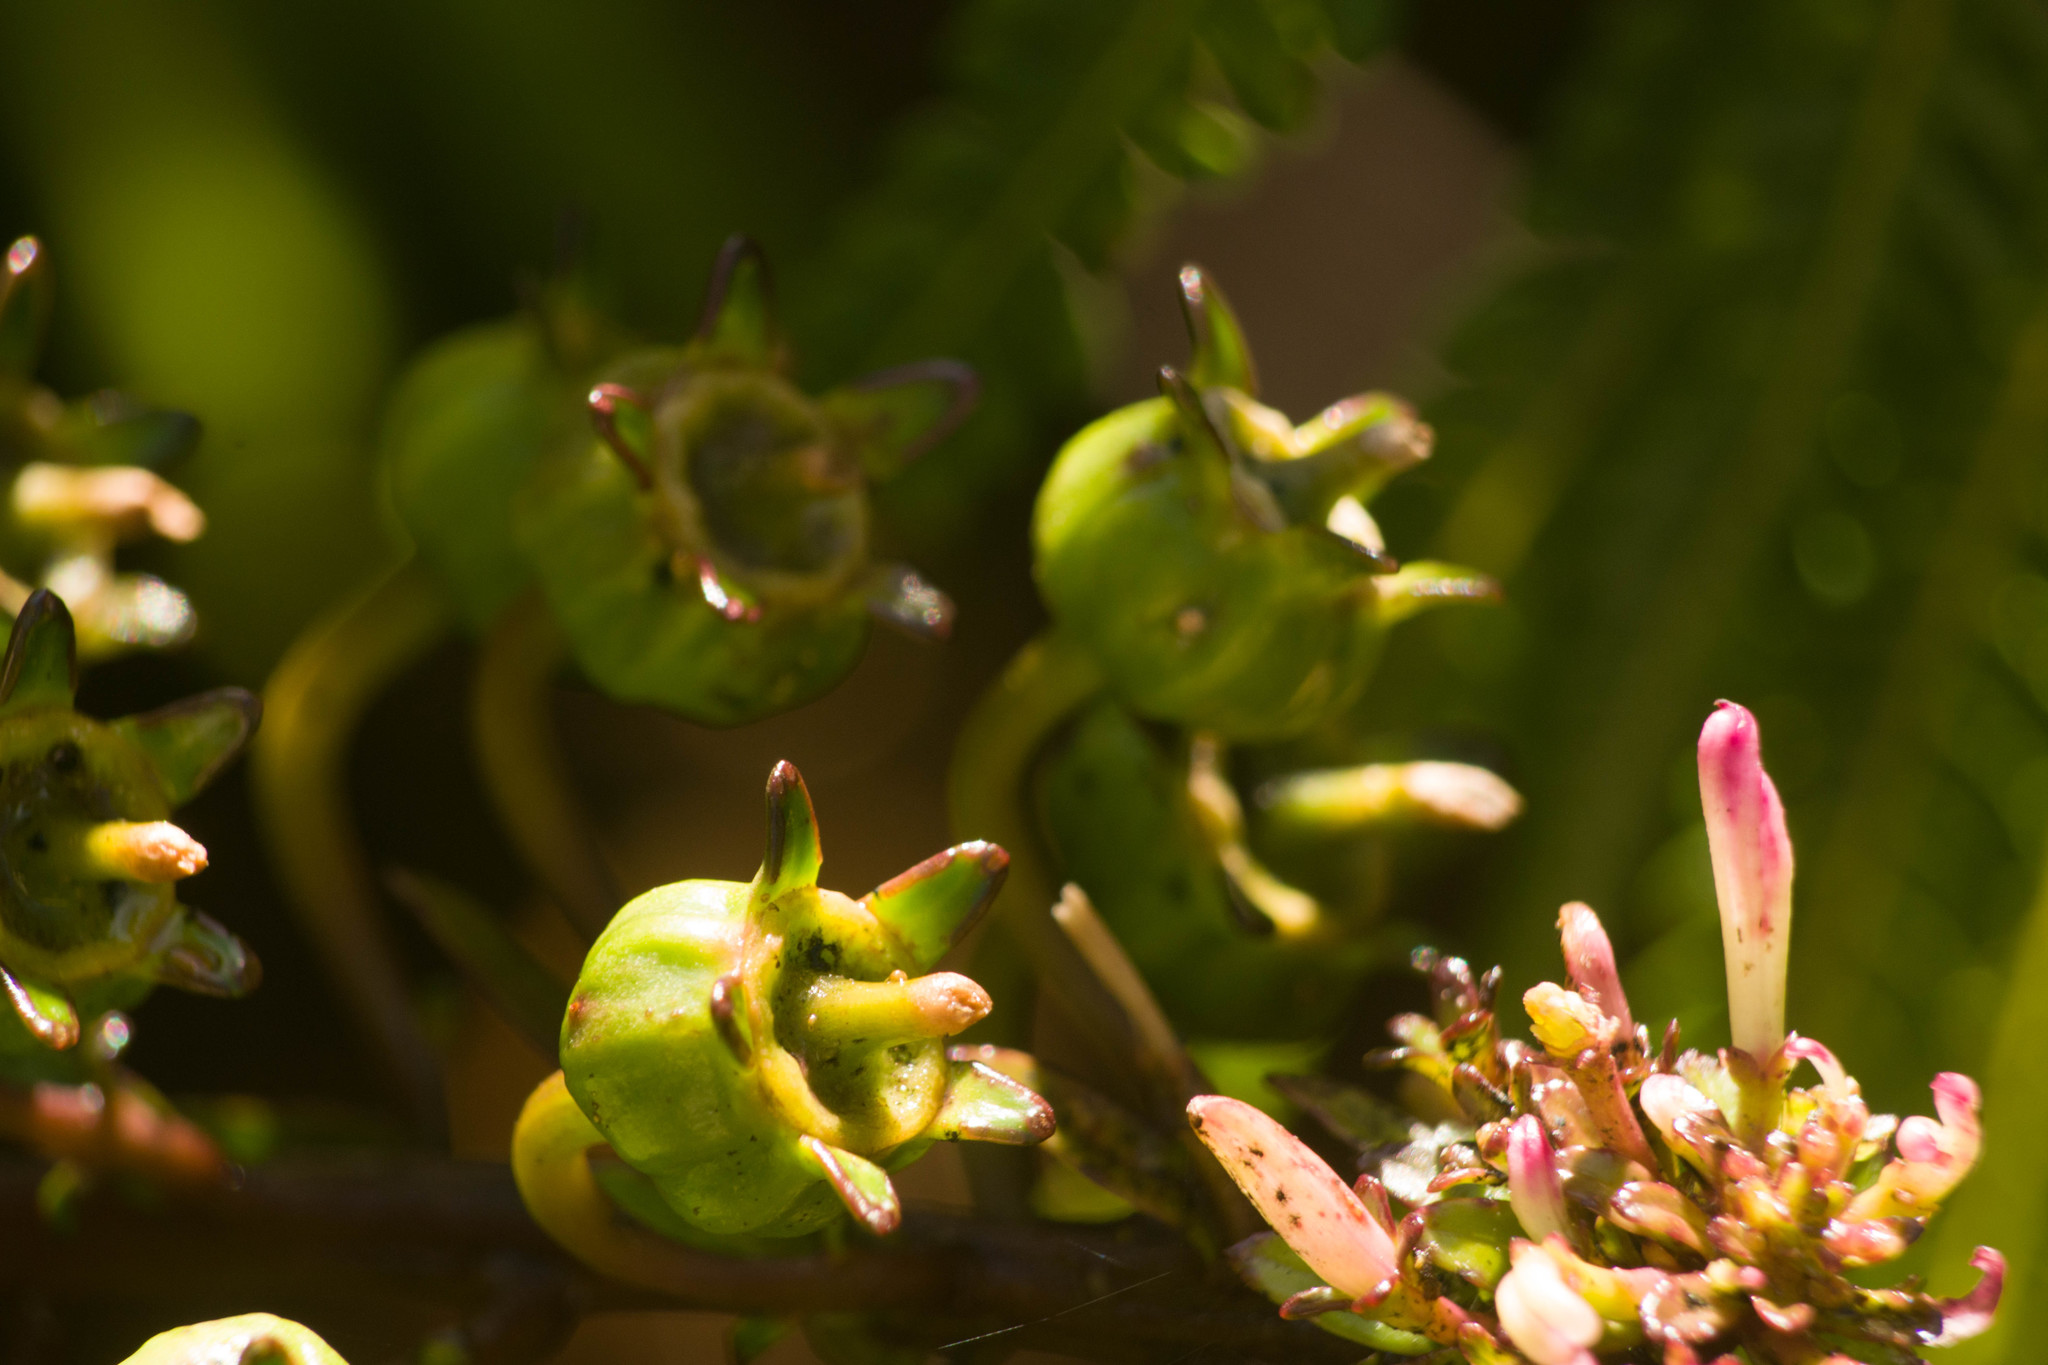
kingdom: Plantae
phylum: Tracheophyta
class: Magnoliopsida
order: Asterales
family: Campanulaceae
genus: Trematolobelia
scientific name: Trematolobelia kaalae
